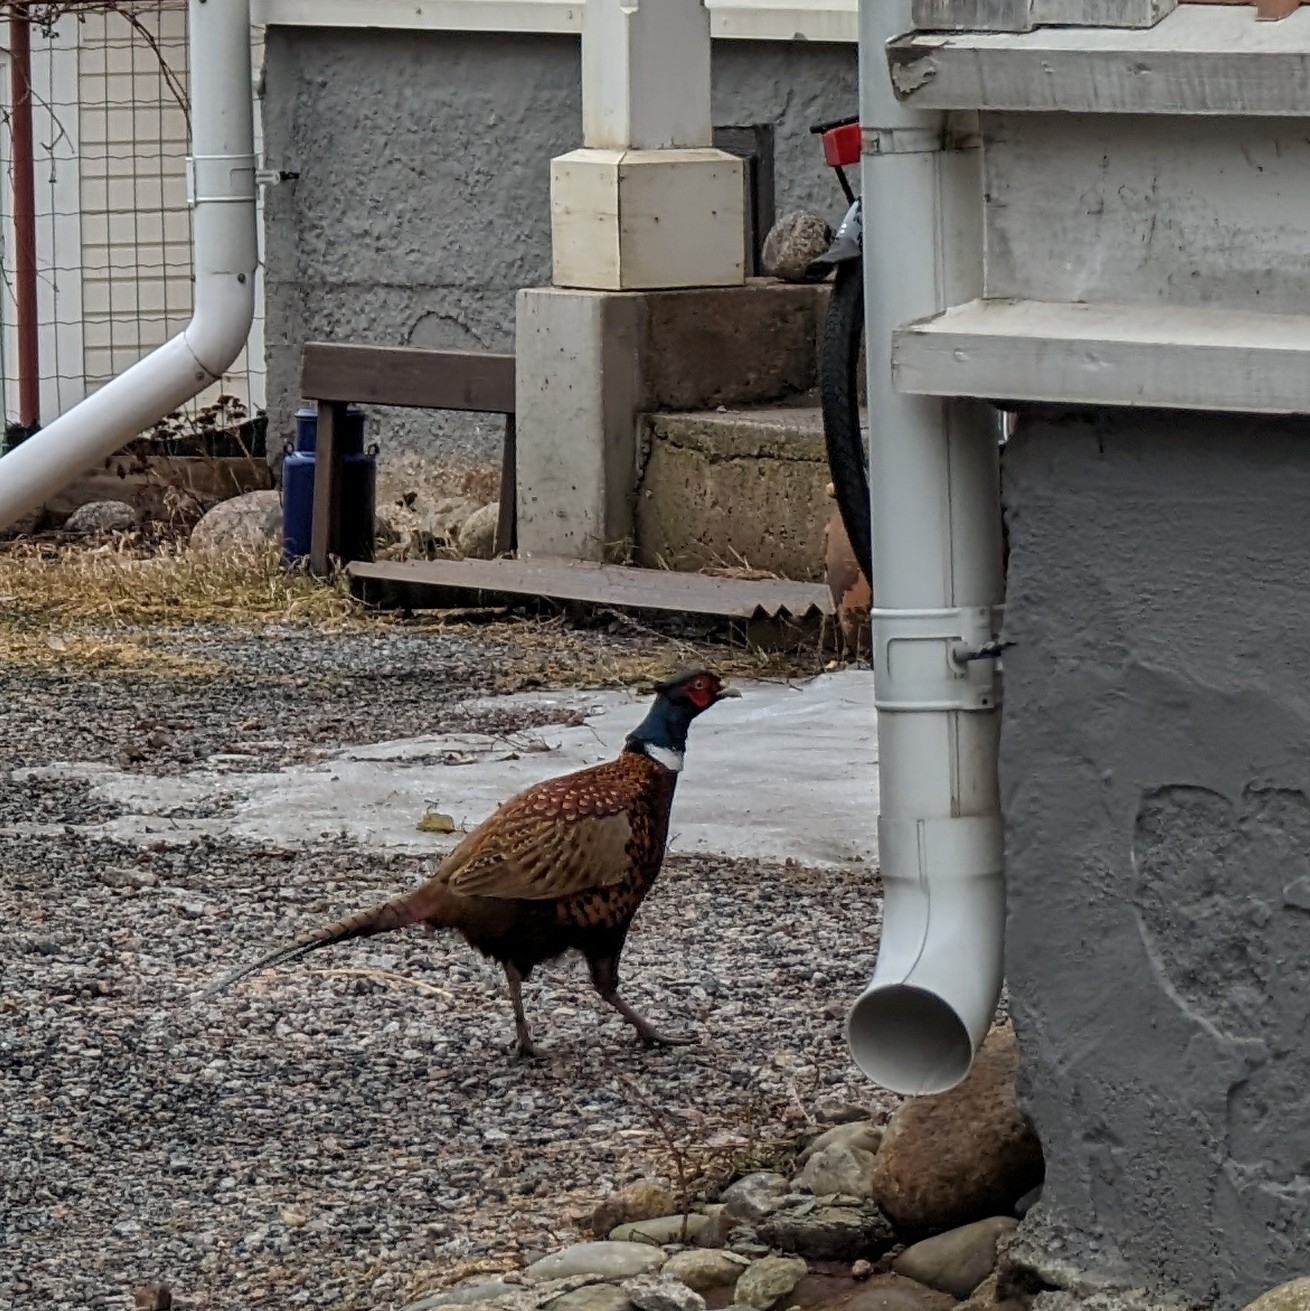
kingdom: Animalia
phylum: Chordata
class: Aves
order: Galliformes
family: Phasianidae
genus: Phasianus
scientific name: Phasianus colchicus
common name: Common pheasant
